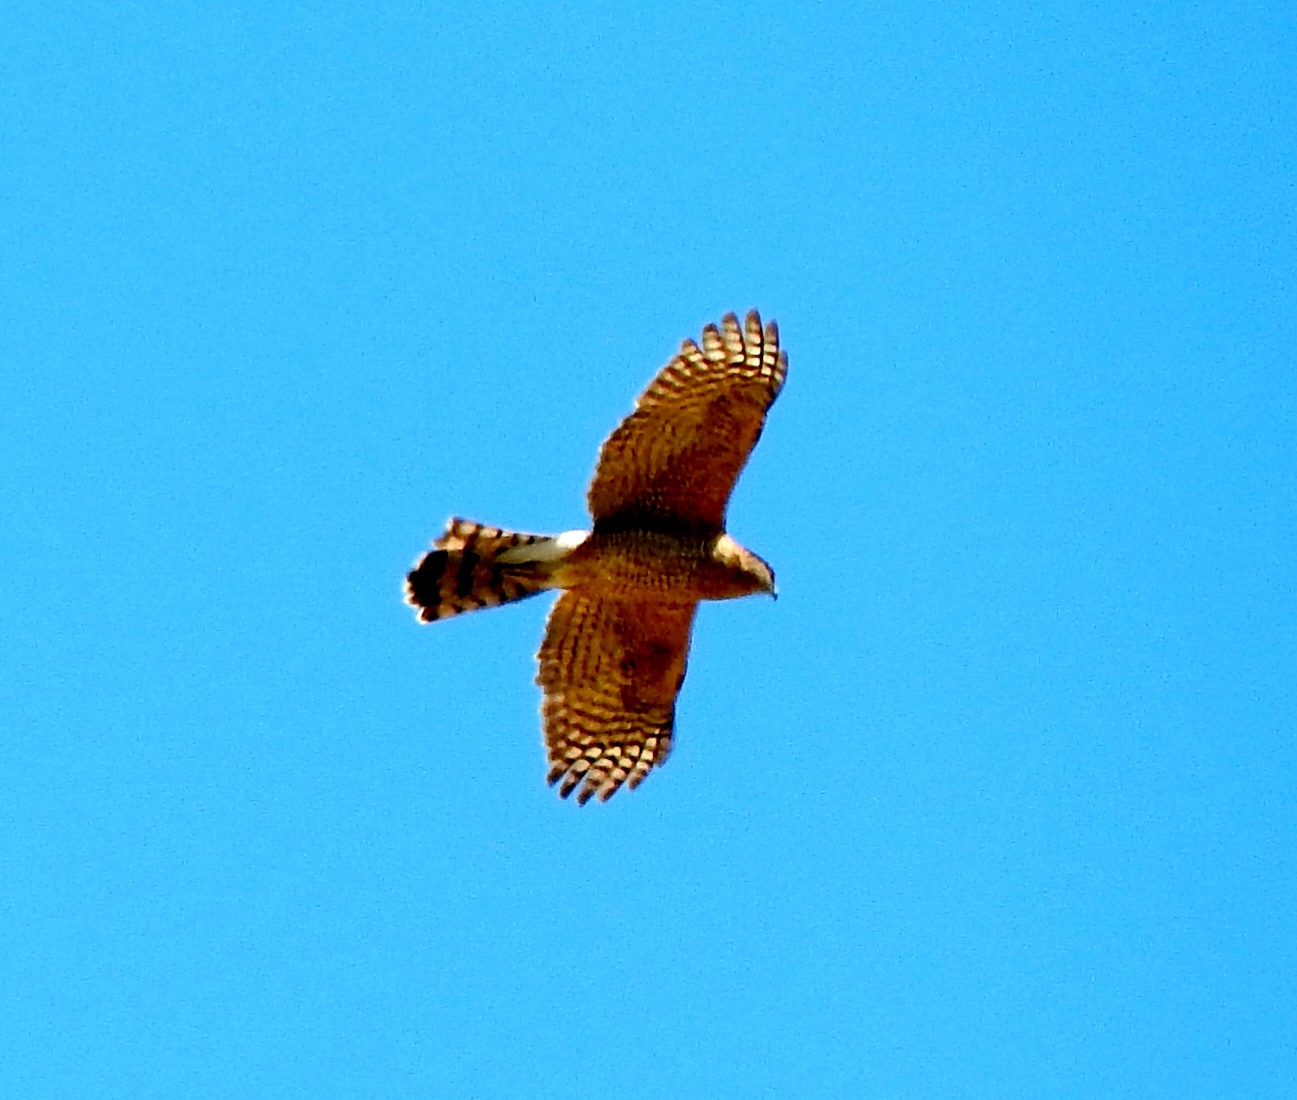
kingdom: Animalia
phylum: Chordata
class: Aves
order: Accipitriformes
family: Accipitridae
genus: Accipiter
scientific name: Accipiter cooperii
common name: Cooper's hawk
